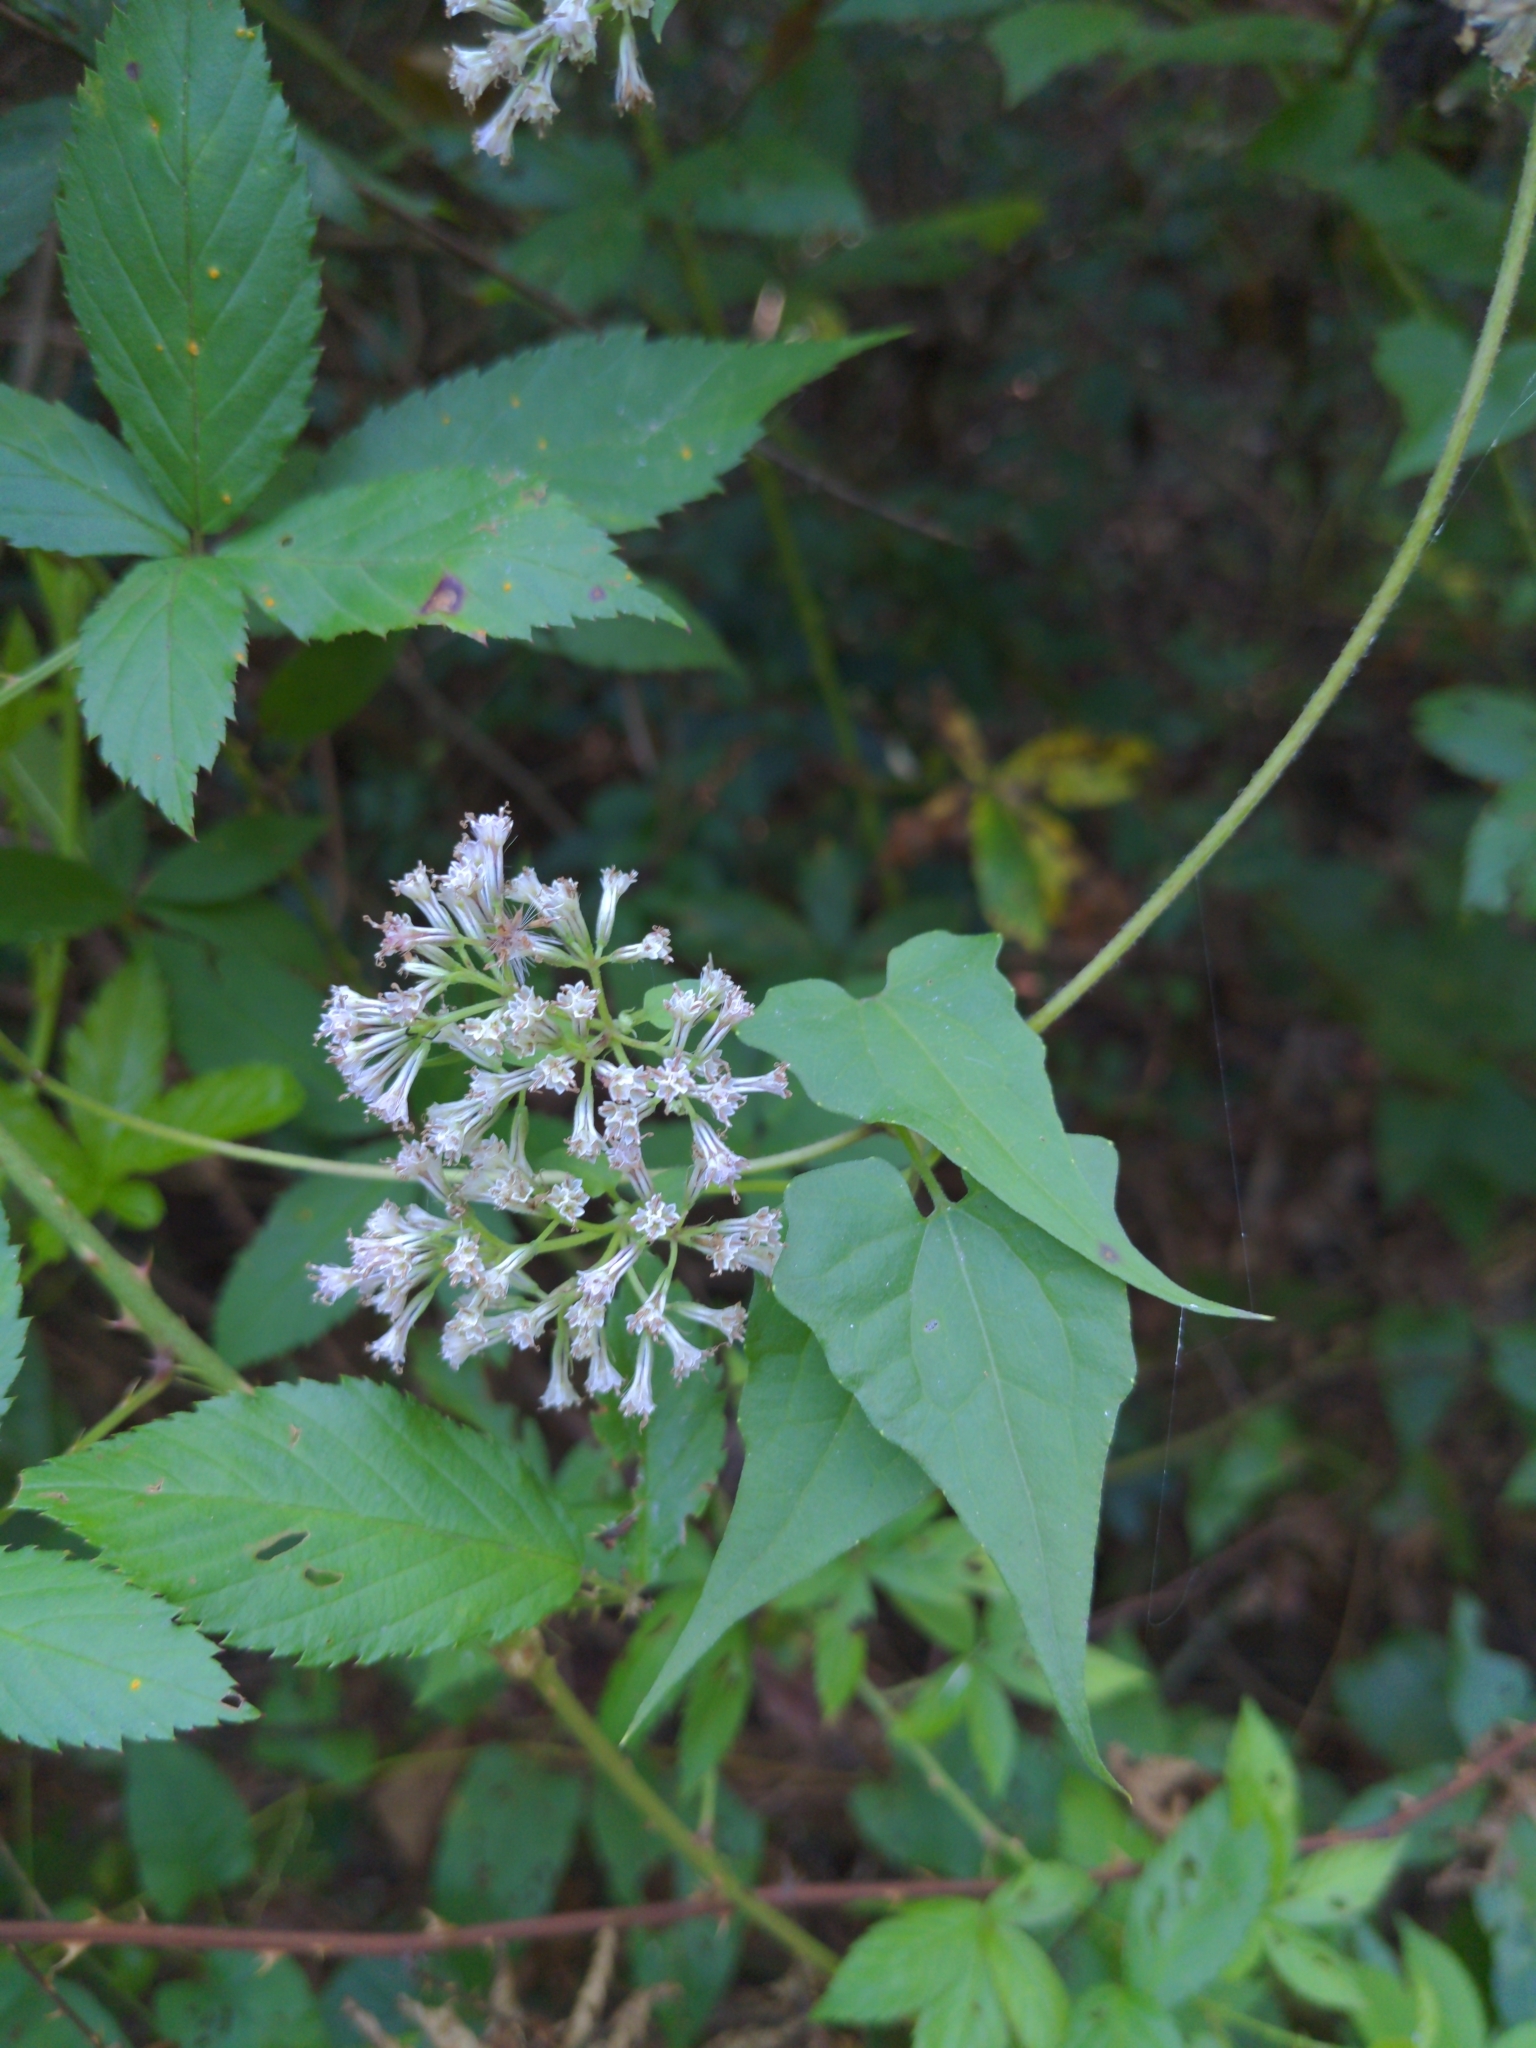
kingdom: Plantae
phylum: Tracheophyta
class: Magnoliopsida
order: Asterales
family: Asteraceae
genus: Mikania
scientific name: Mikania scandens
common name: Climbing hempvine
